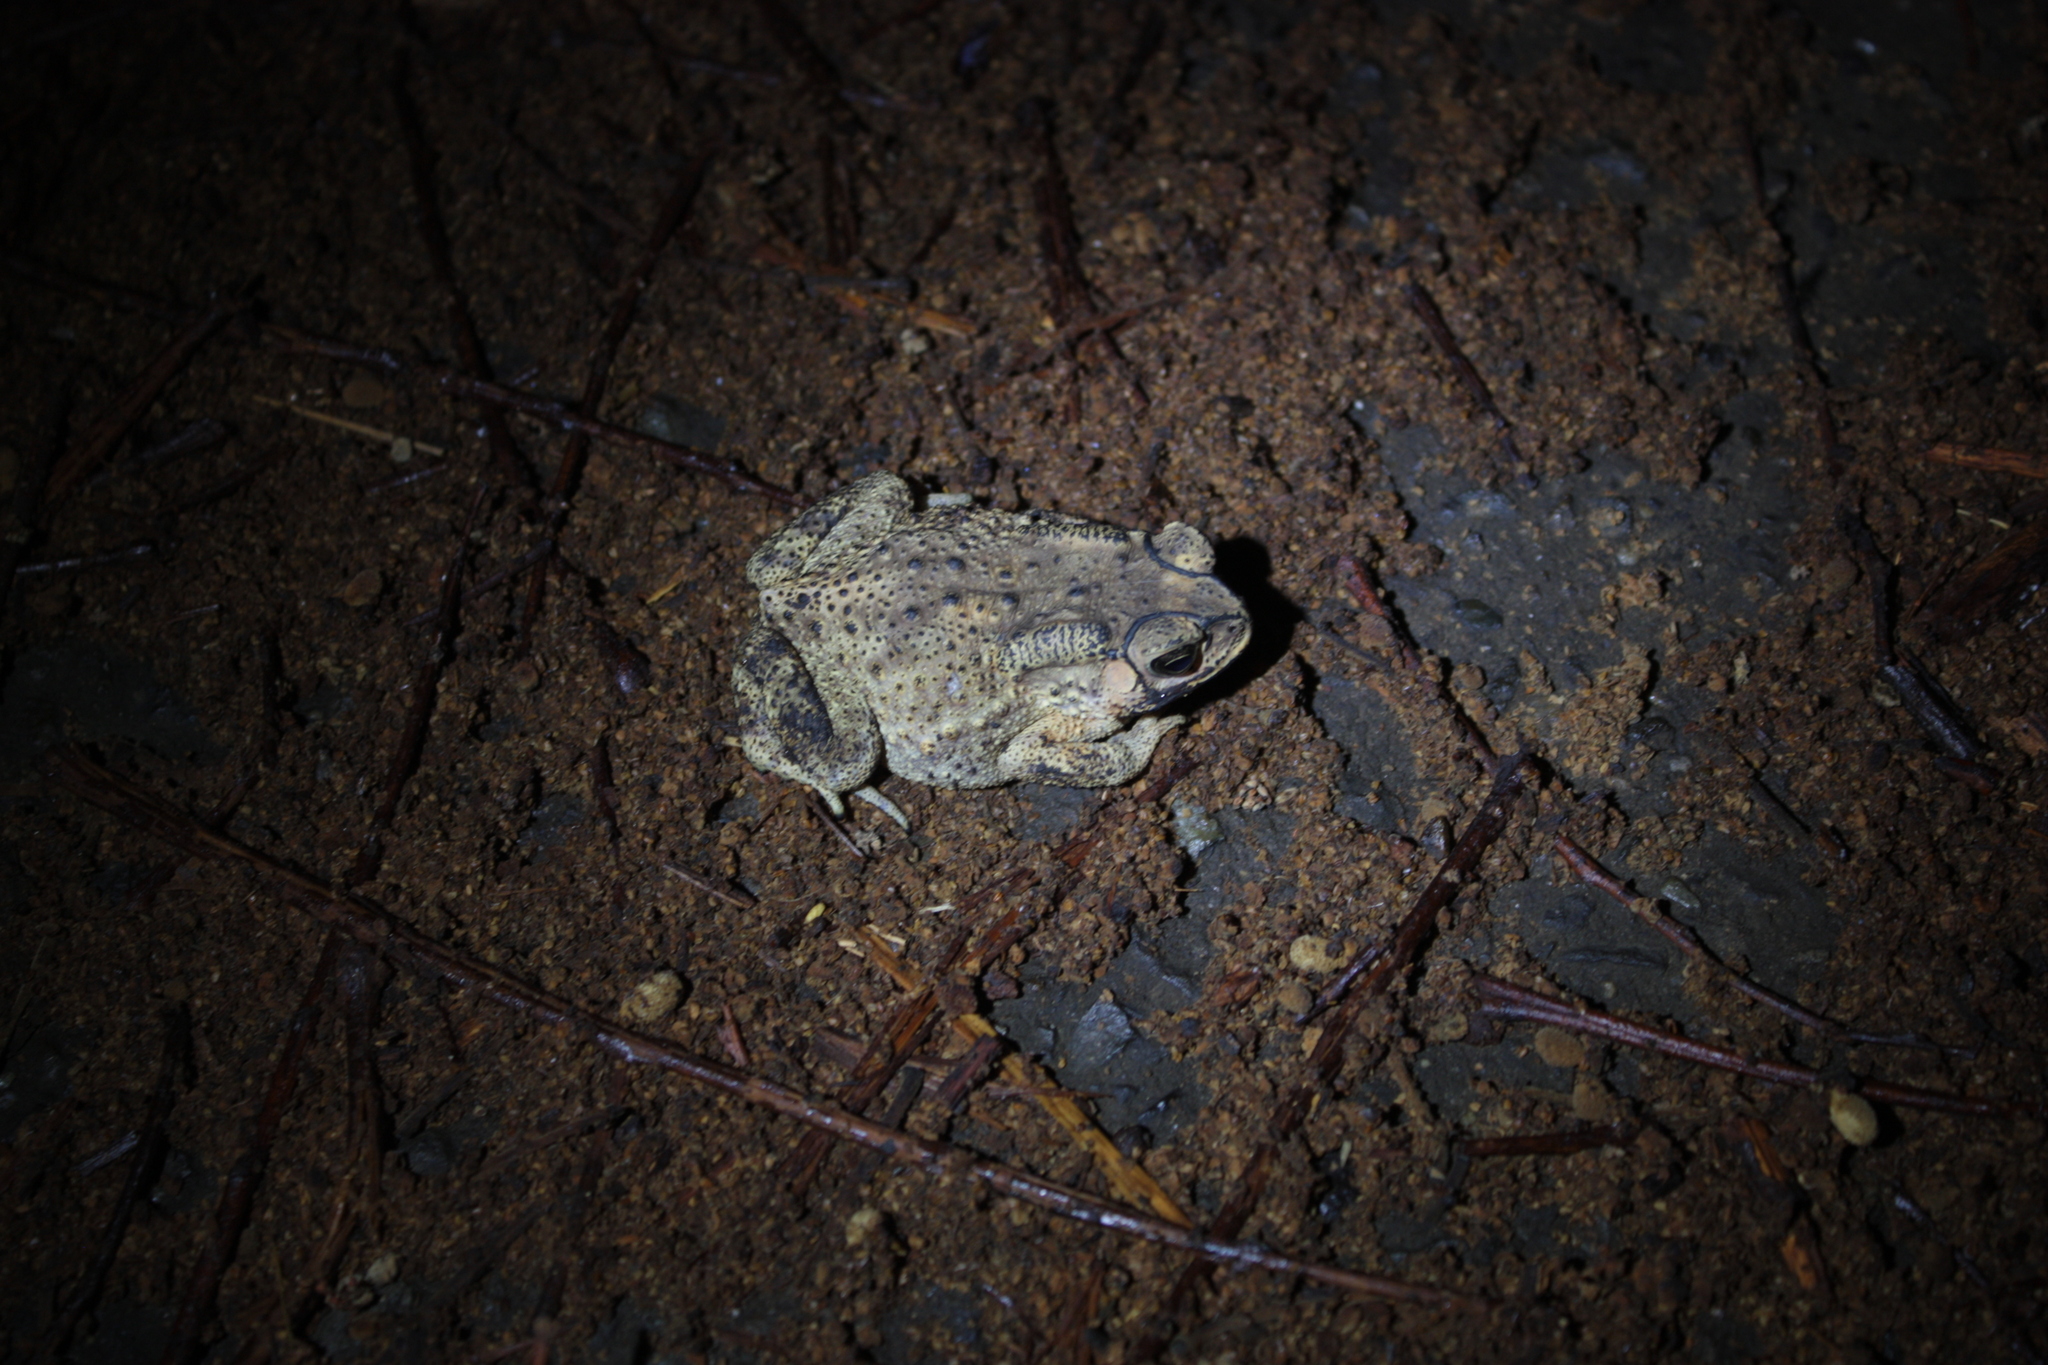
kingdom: Animalia
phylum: Chordata
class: Amphibia
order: Anura
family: Bufonidae
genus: Duttaphrynus
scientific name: Duttaphrynus melanostictus
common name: Common sunda toad
